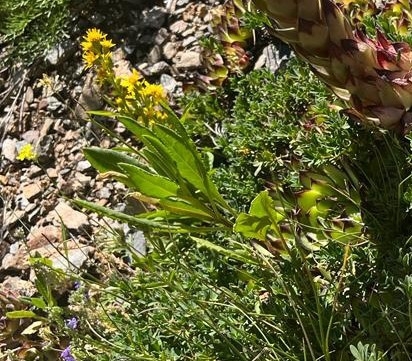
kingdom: Plantae
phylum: Tracheophyta
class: Magnoliopsida
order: Asterales
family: Asteraceae
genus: Senecio
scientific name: Senecio pyrenaicus
